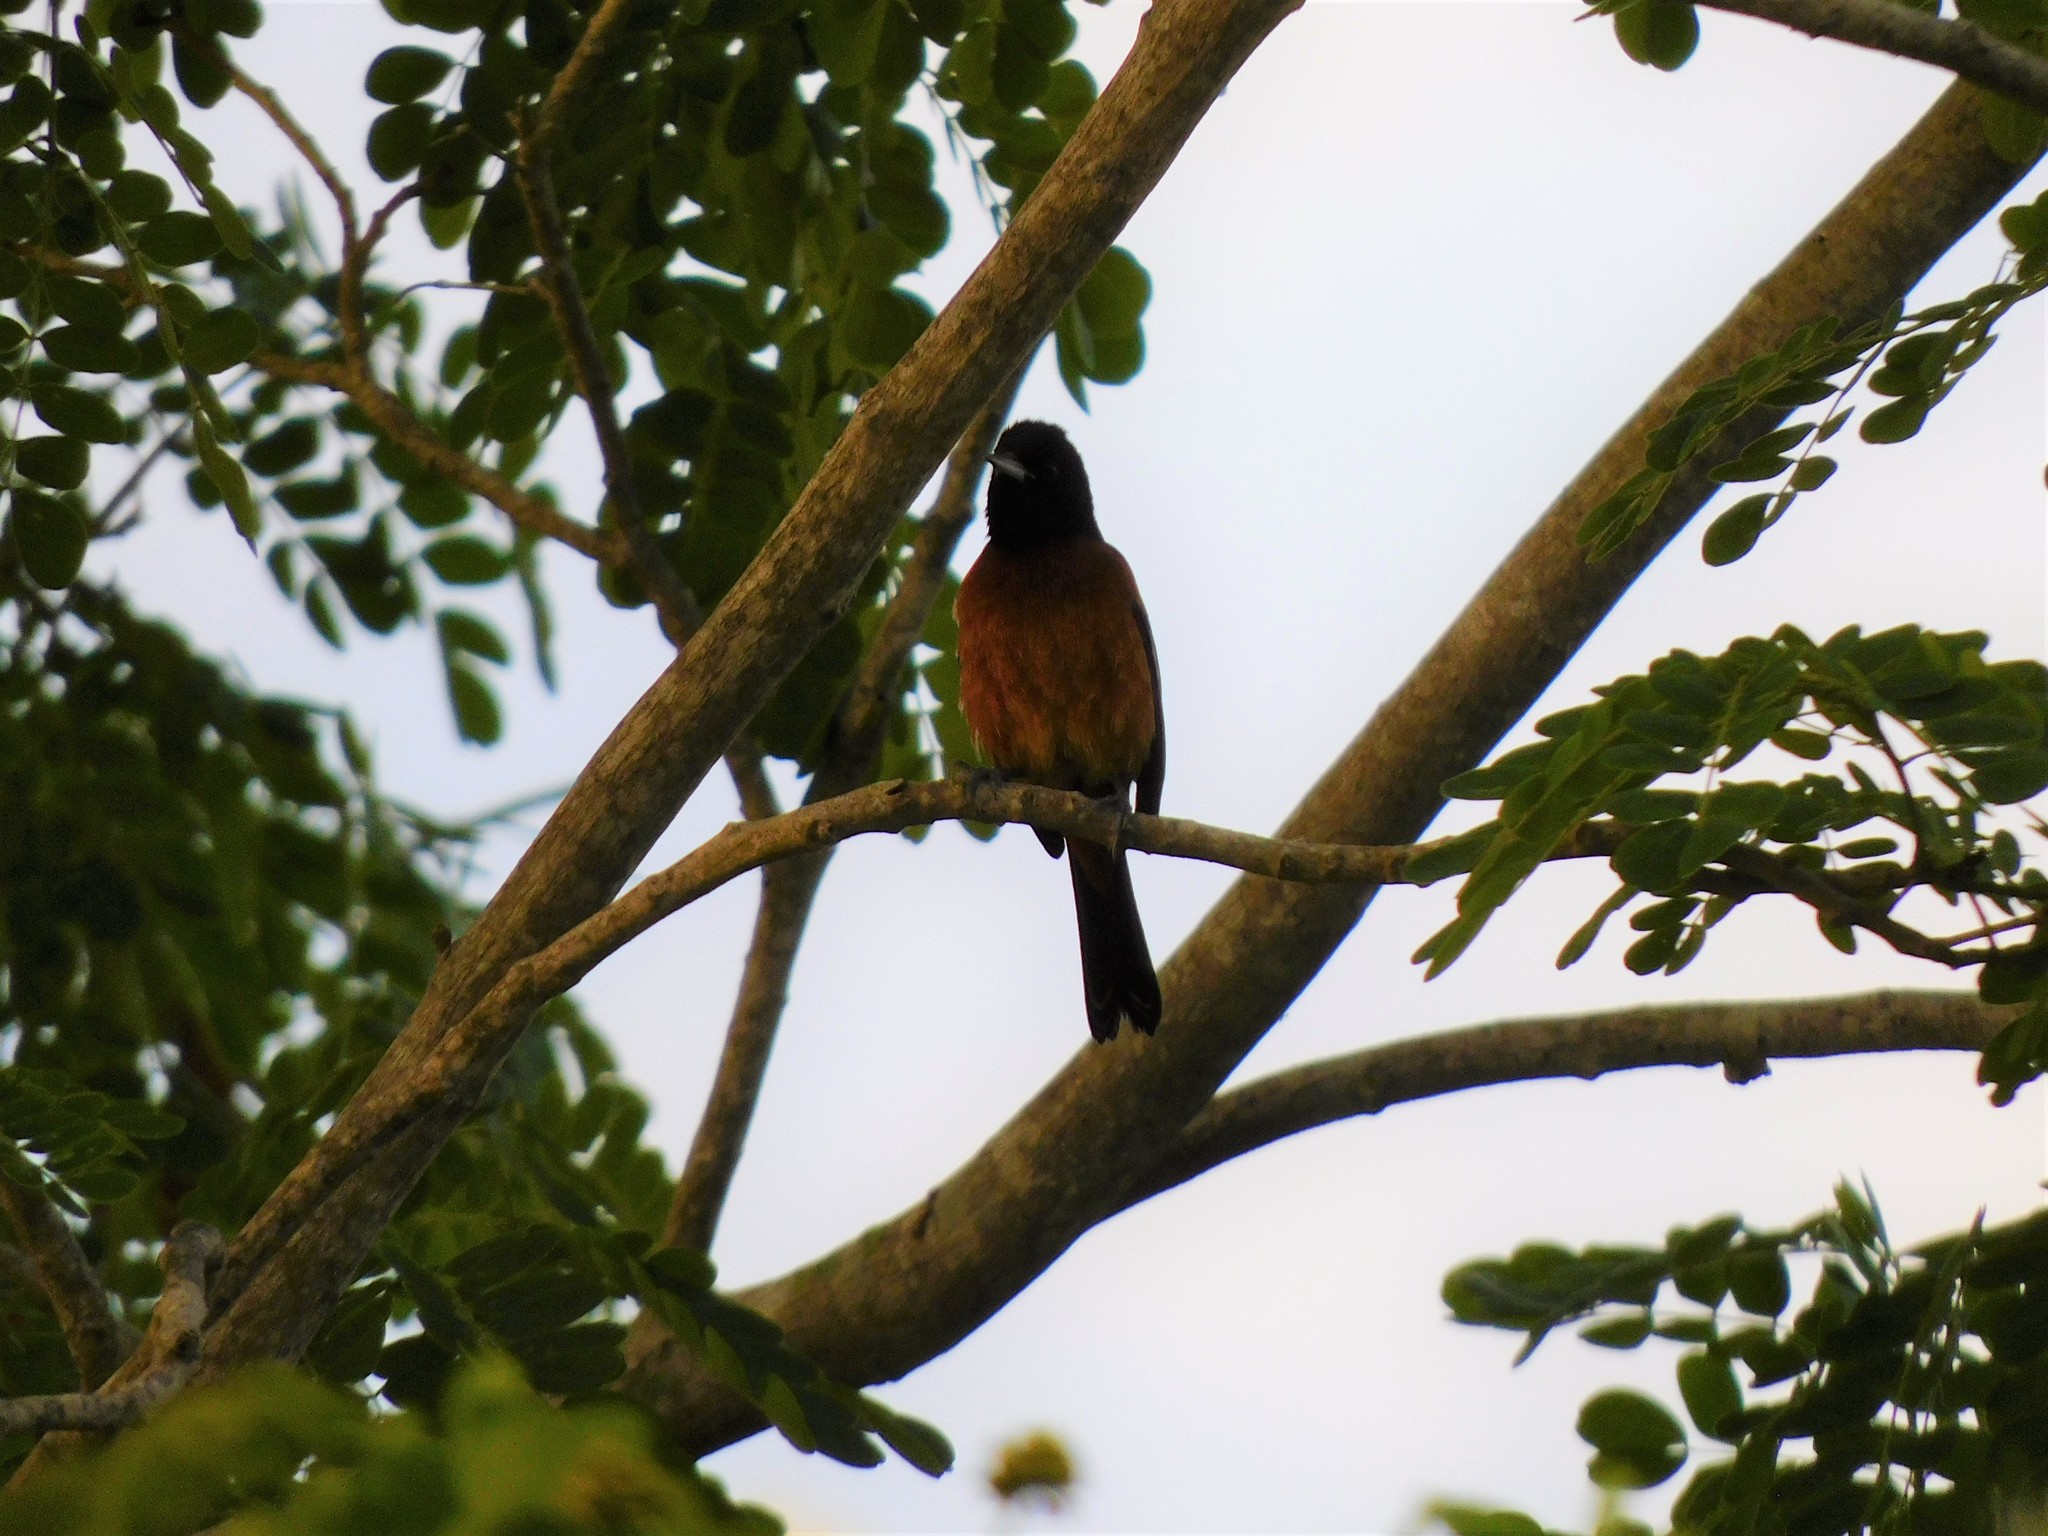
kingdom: Animalia
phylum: Chordata
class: Aves
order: Passeriformes
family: Icteridae
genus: Icterus
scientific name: Icterus spurius
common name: Orchard oriole
